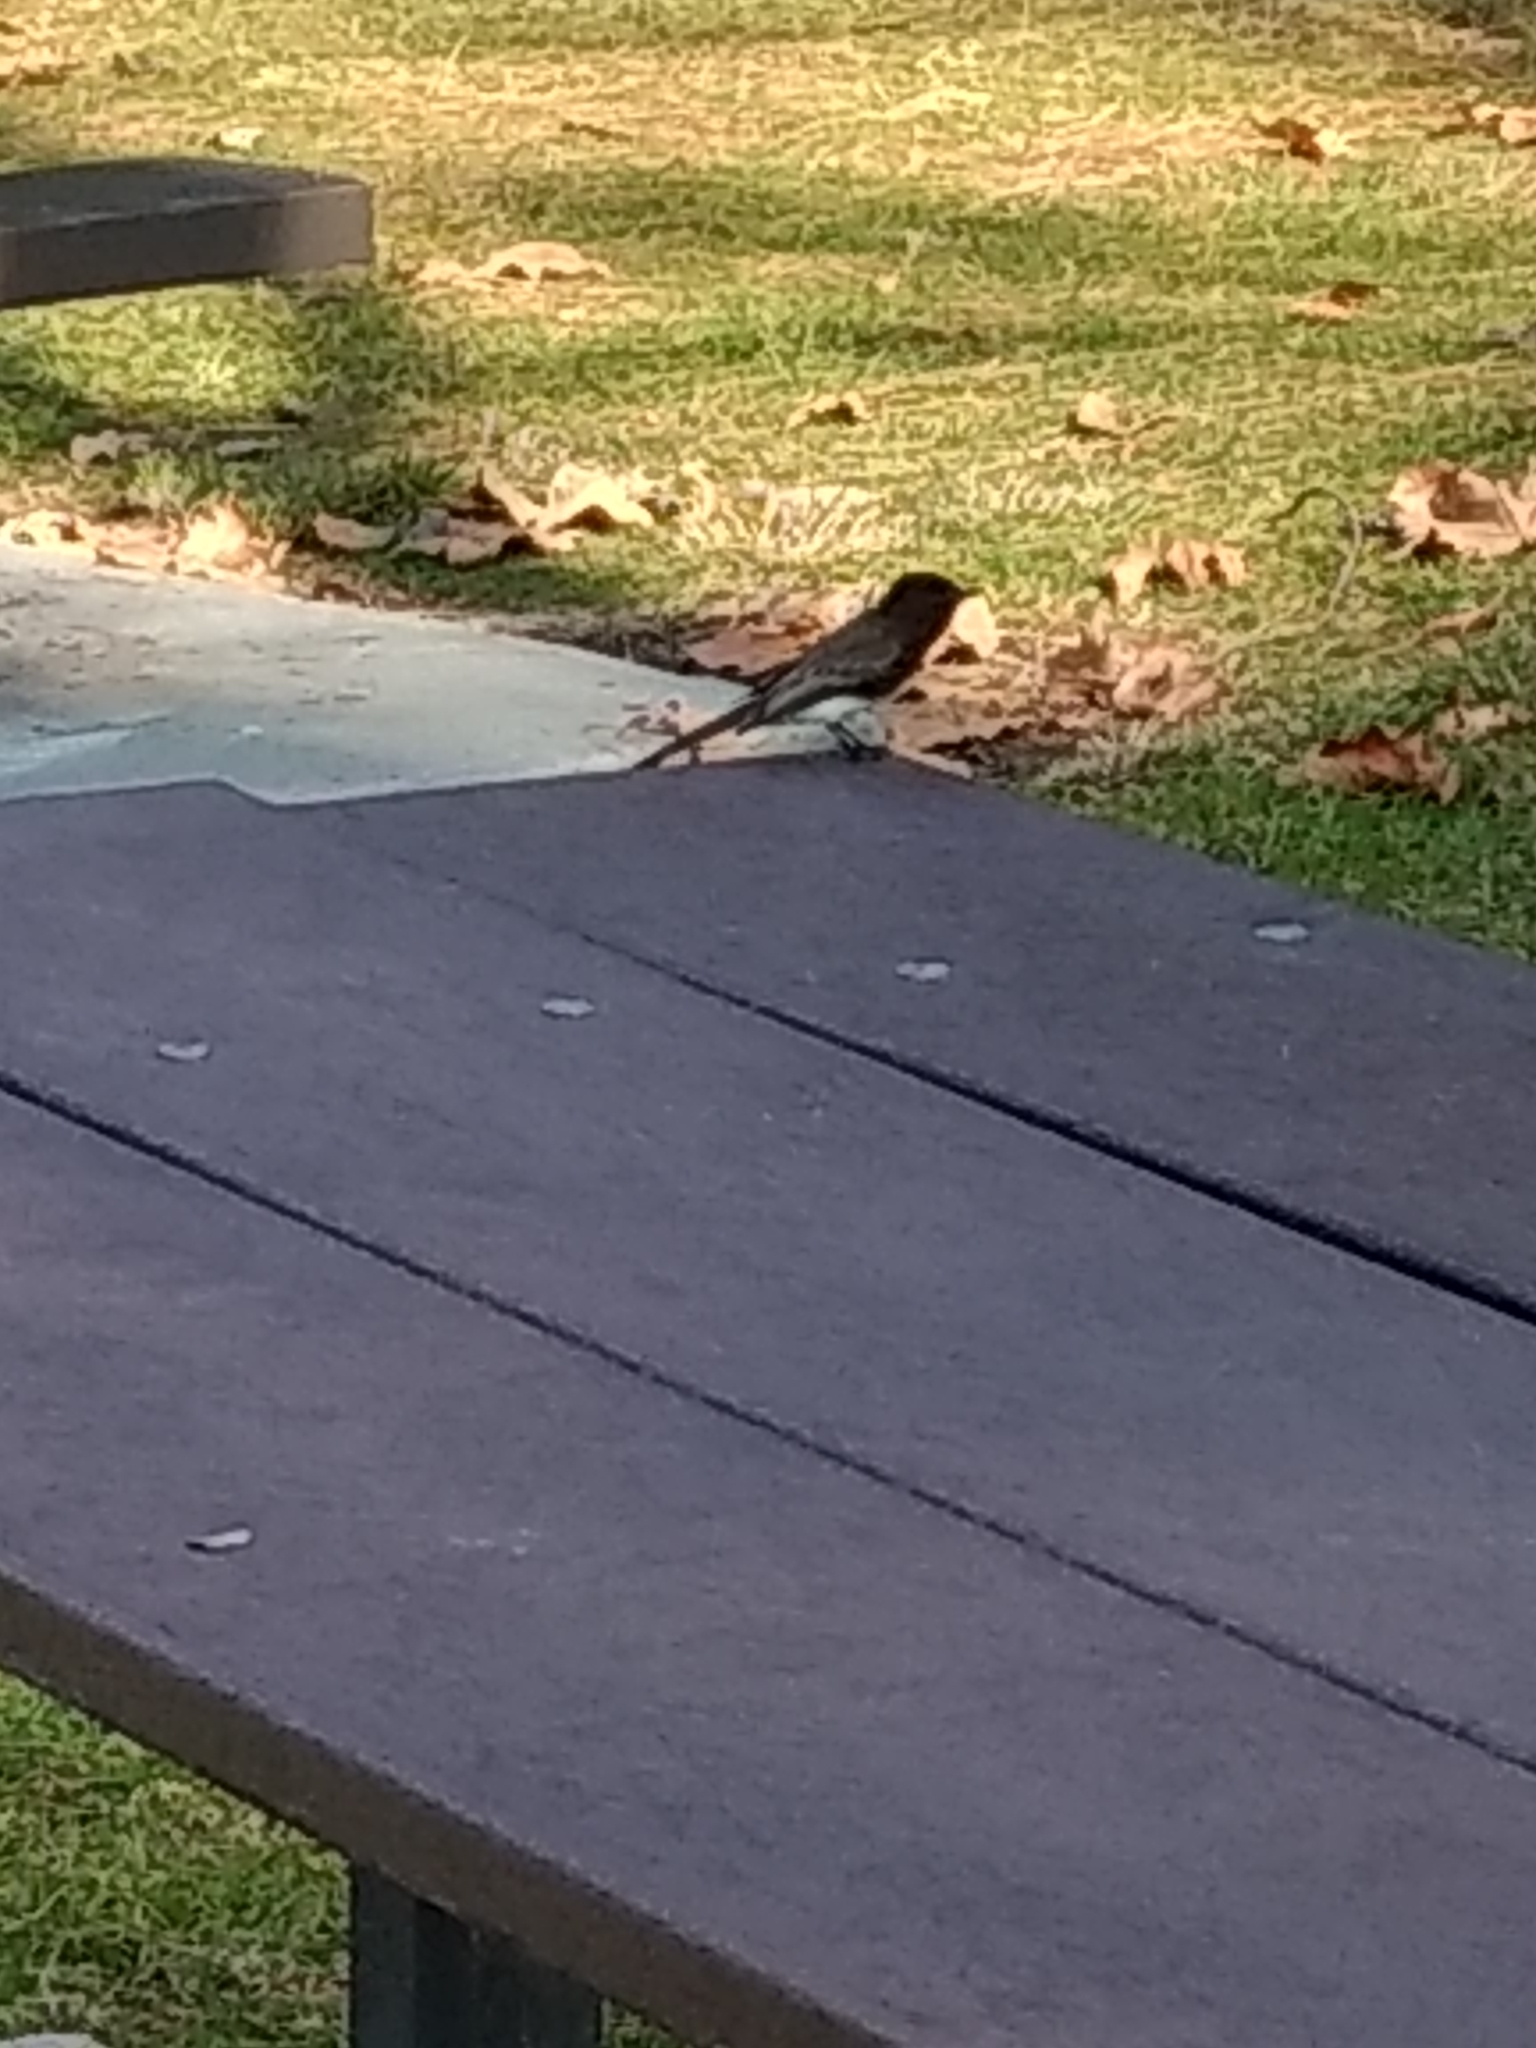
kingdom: Animalia
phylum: Chordata
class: Aves
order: Passeriformes
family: Tyrannidae
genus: Sayornis
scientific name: Sayornis nigricans
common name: Black phoebe
